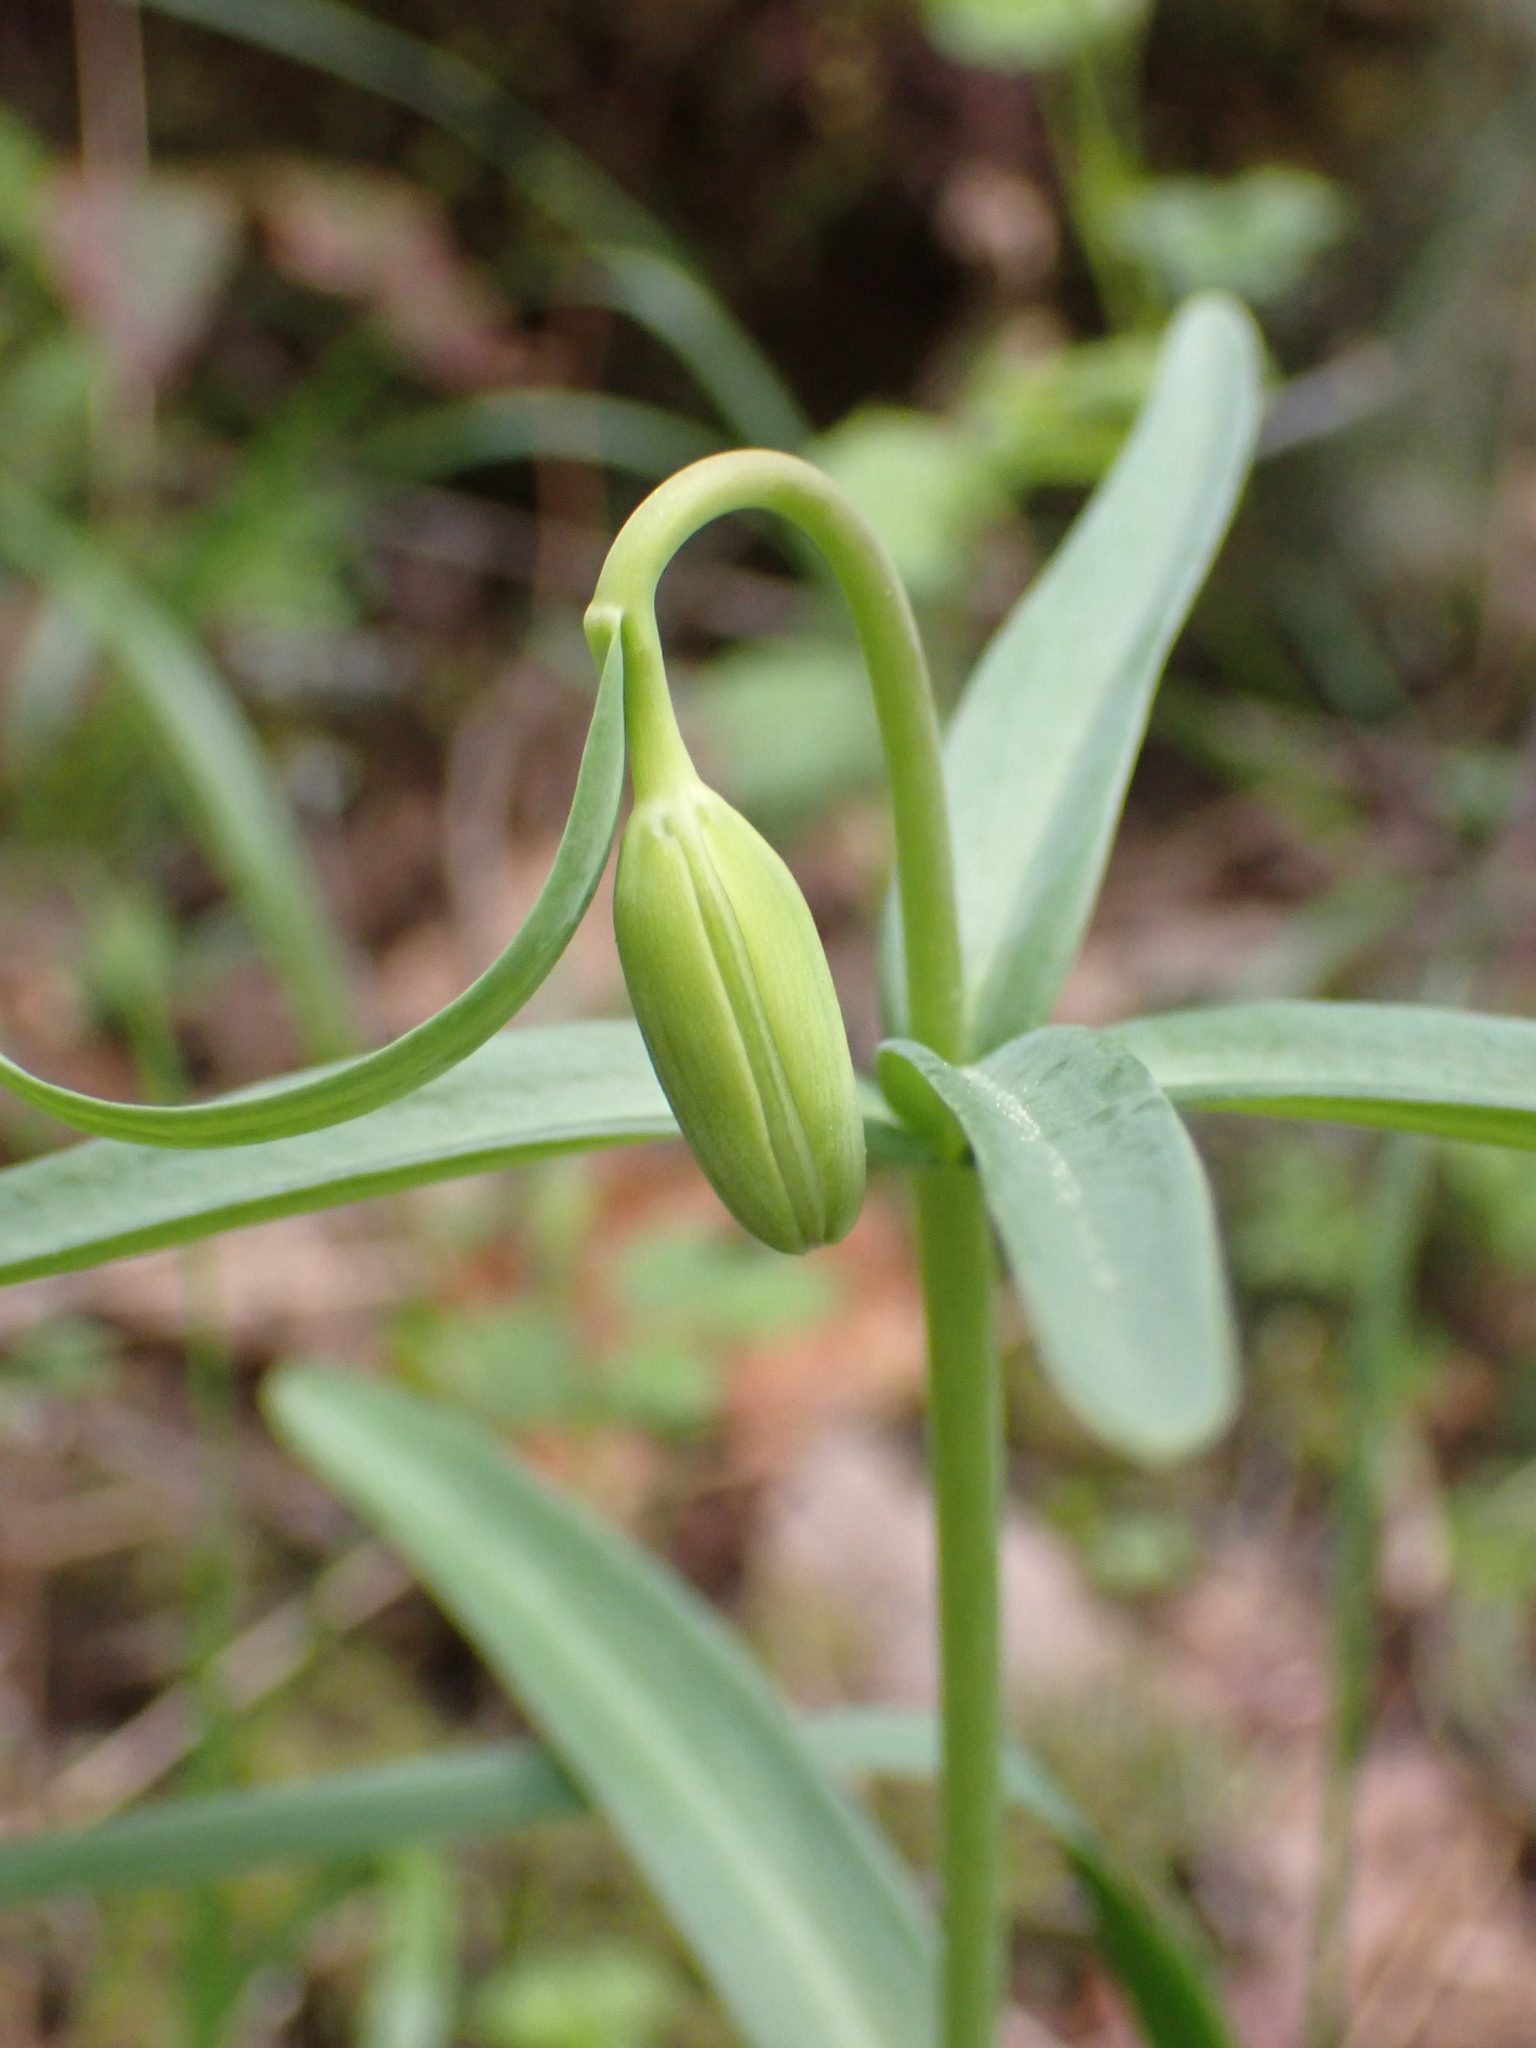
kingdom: Plantae
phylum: Tracheophyta
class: Liliopsida
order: Liliales
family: Liliaceae
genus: Fritillaria
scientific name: Fritillaria affinis
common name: Ojai fritillary
